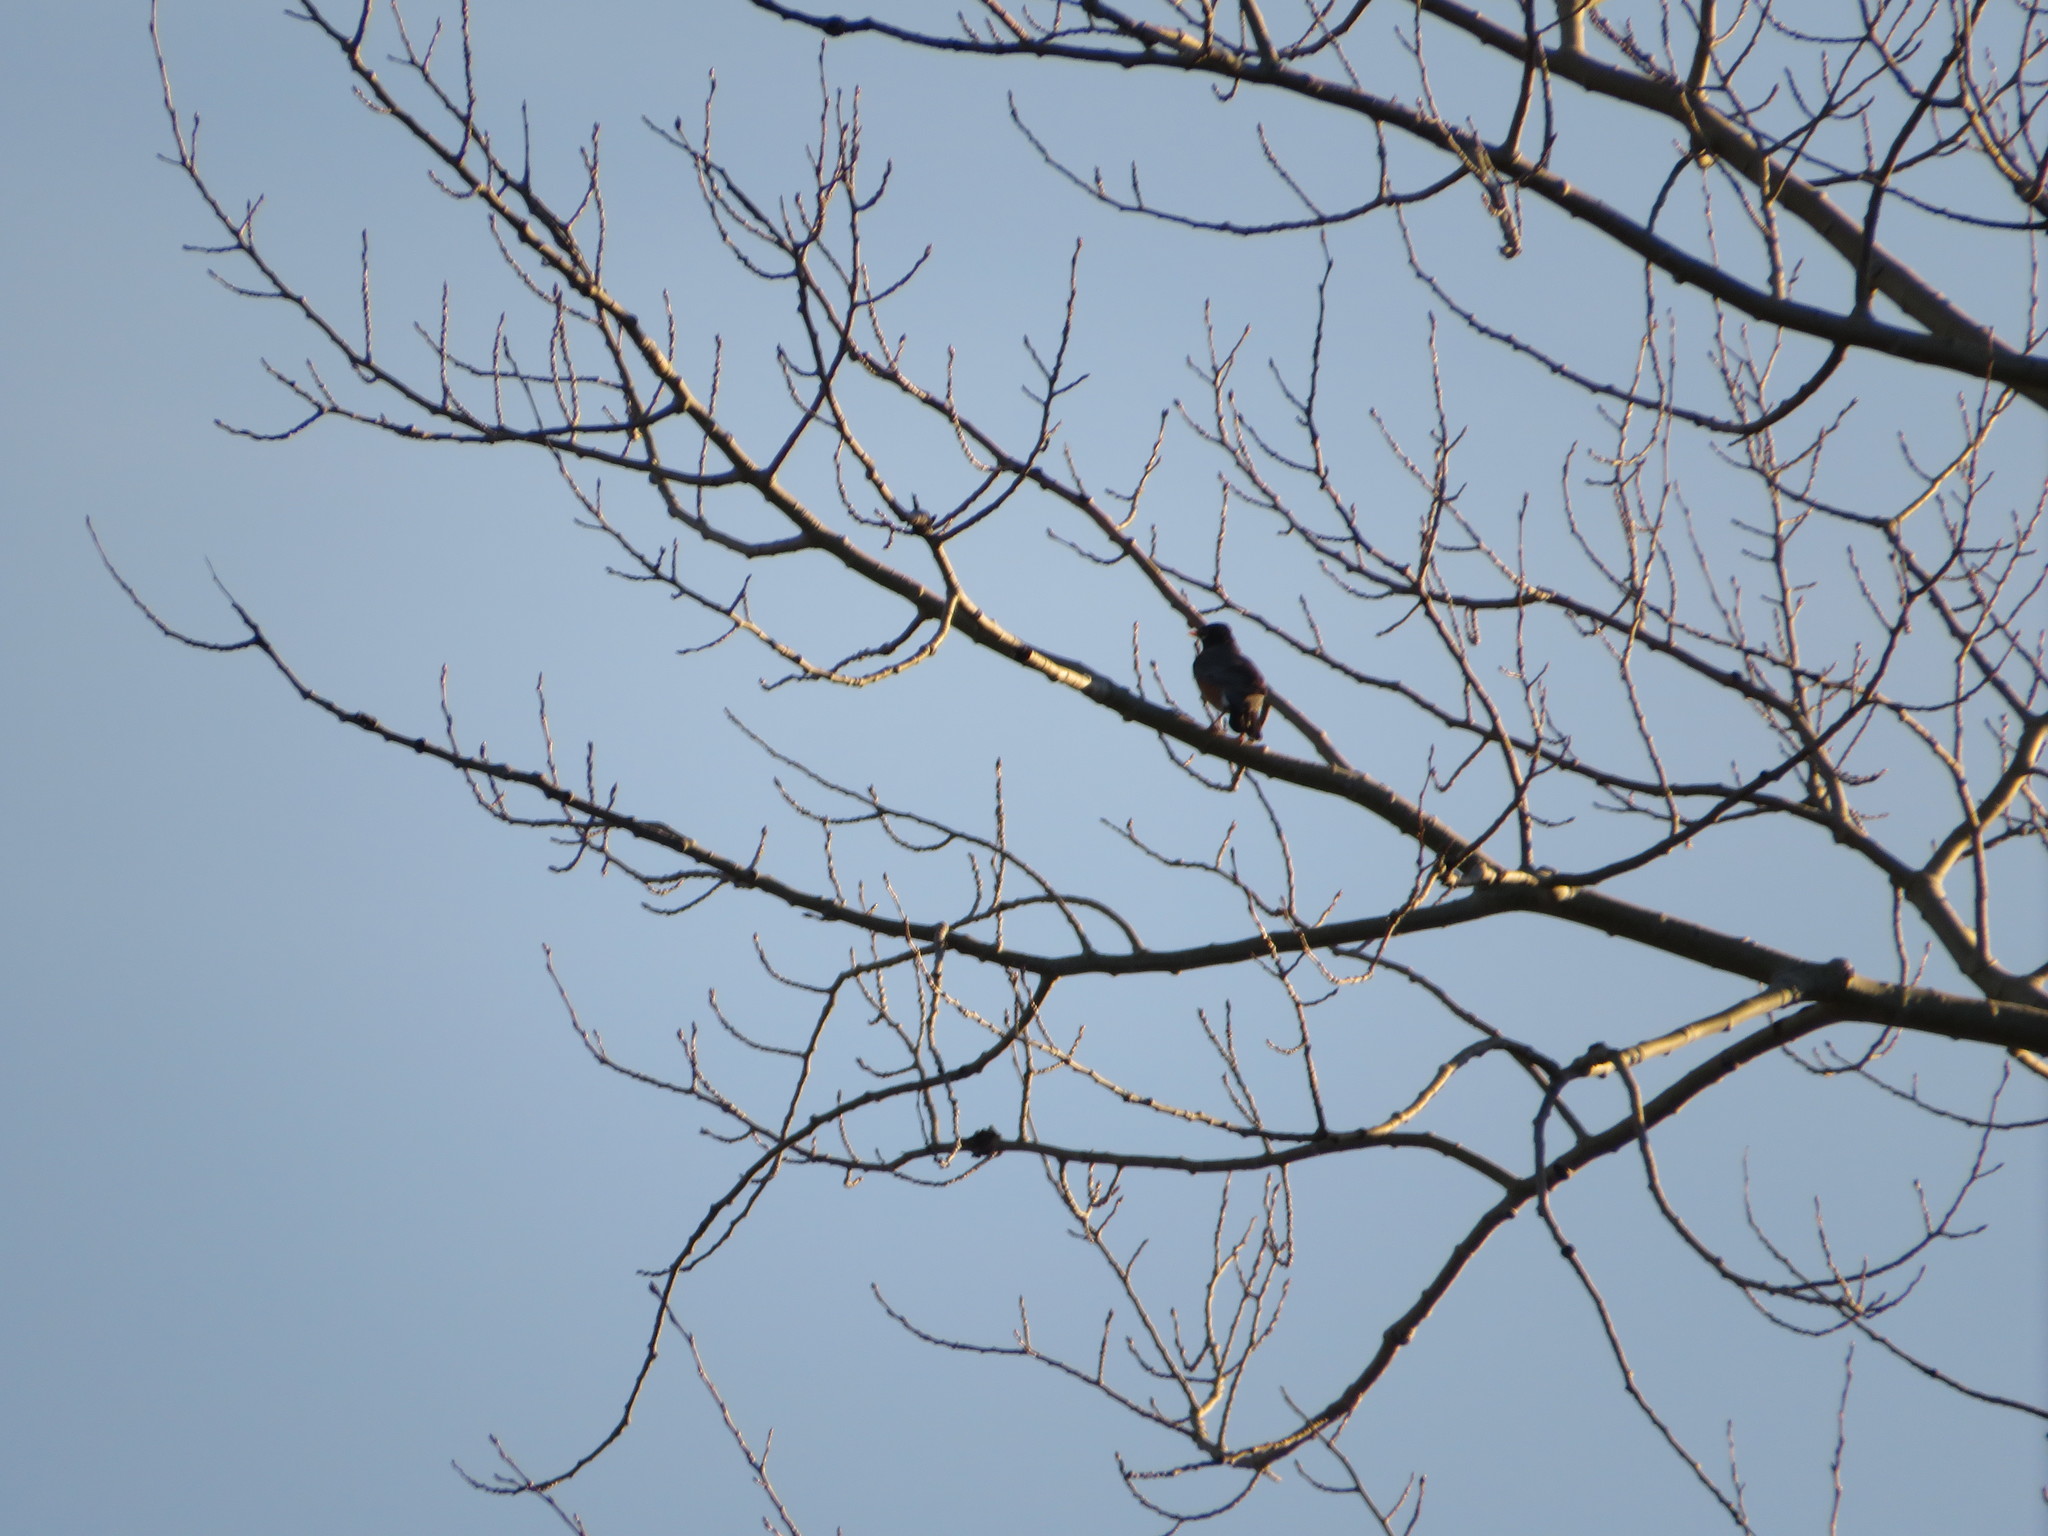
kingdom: Animalia
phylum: Chordata
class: Aves
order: Passeriformes
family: Turdidae
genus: Turdus
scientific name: Turdus migratorius
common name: American robin
